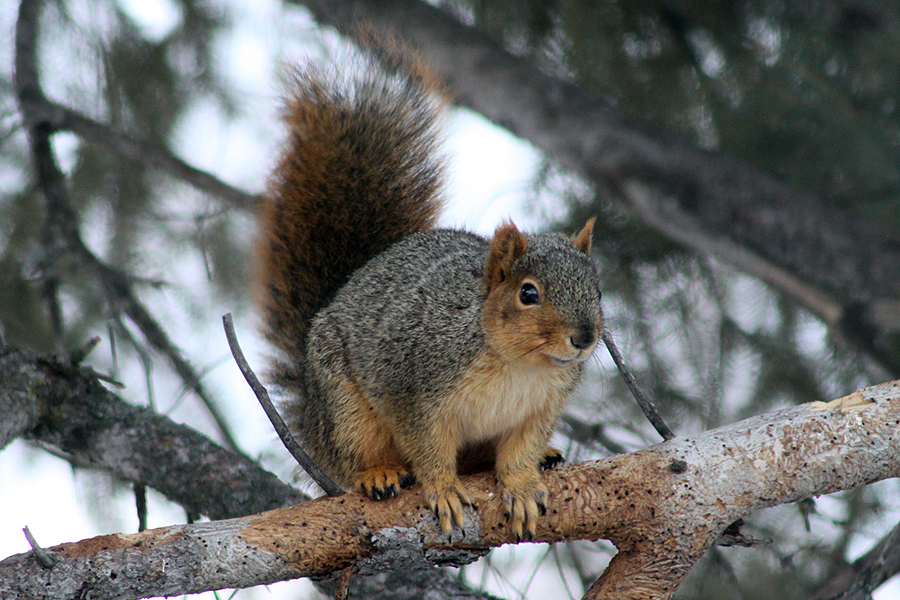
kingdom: Animalia
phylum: Chordata
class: Mammalia
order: Rodentia
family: Sciuridae
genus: Sciurus
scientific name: Sciurus niger
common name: Fox squirrel
